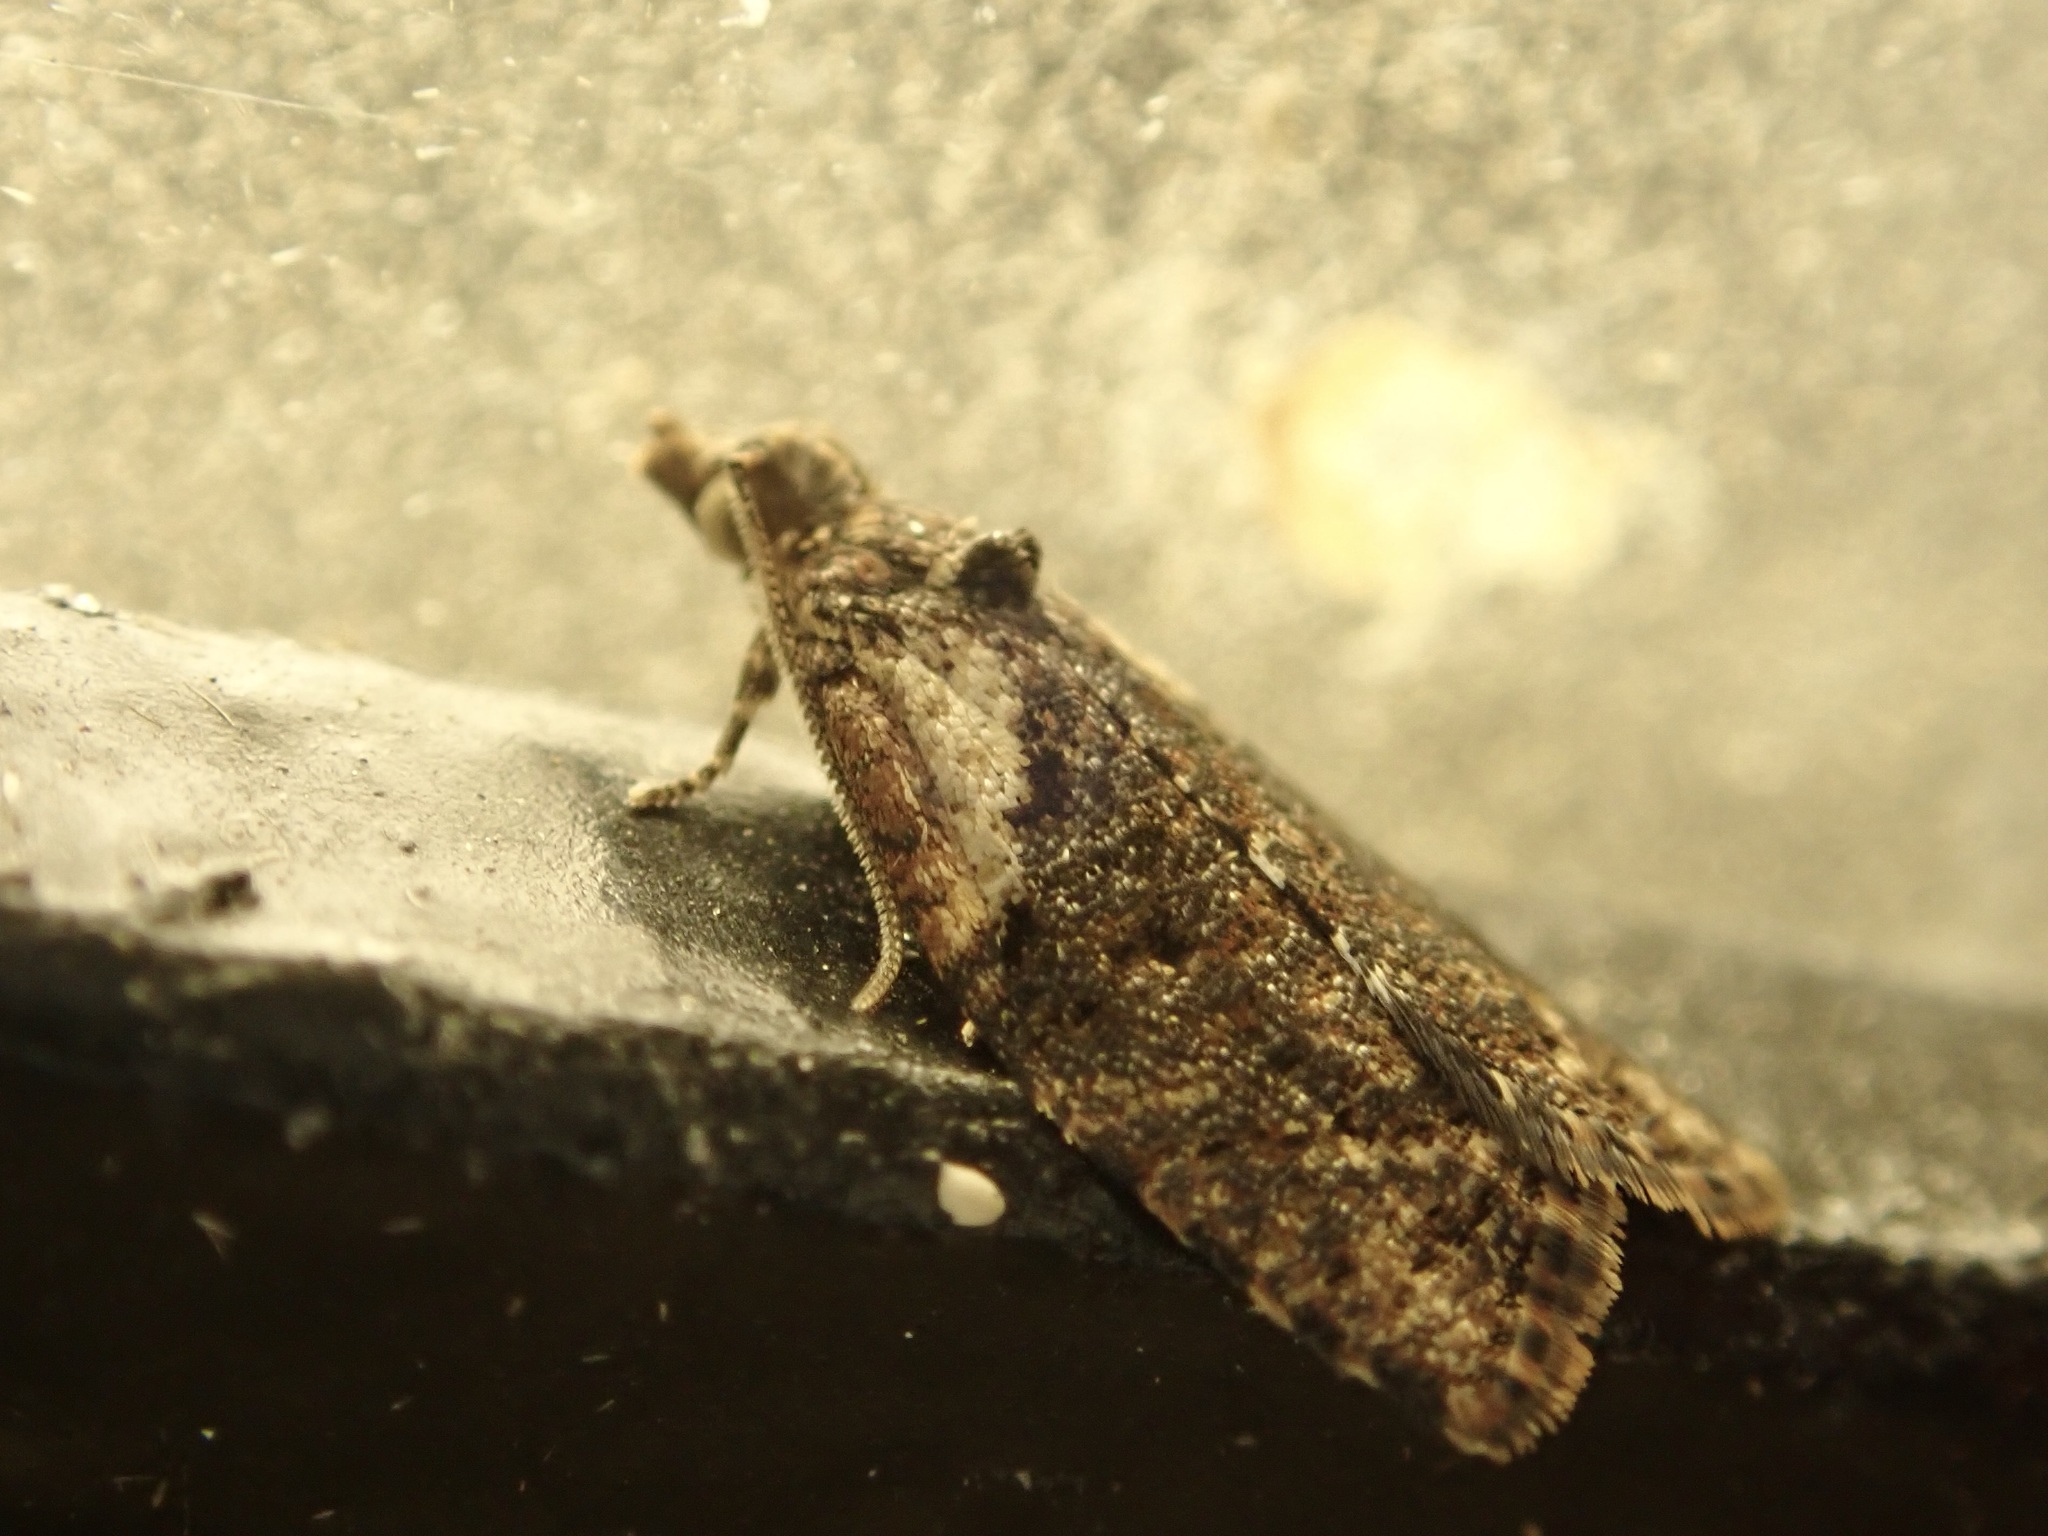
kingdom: Animalia
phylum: Arthropoda
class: Insecta
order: Lepidoptera
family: Tortricidae
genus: Capua
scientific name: Capua intractana
